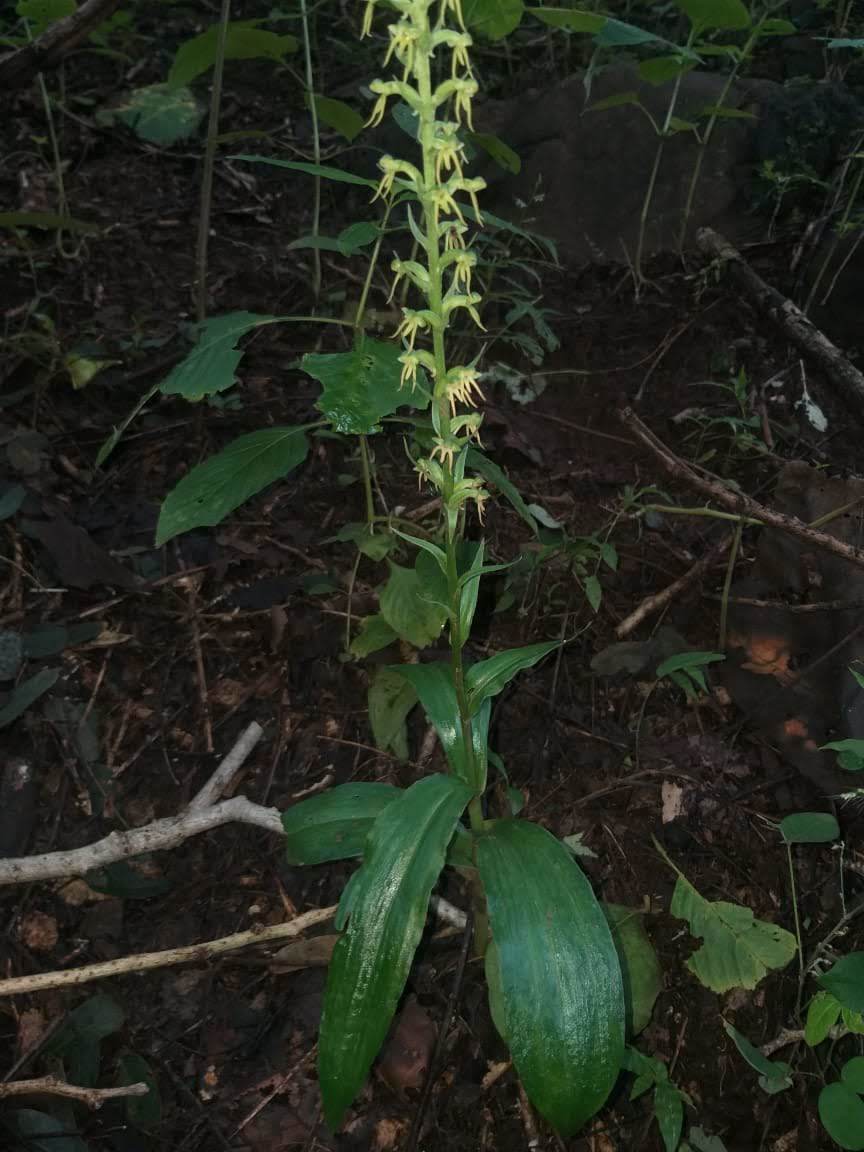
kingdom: Plantae
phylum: Tracheophyta
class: Liliopsida
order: Asparagales
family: Orchidaceae
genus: Habenaria
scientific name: Habenaria furcifera
